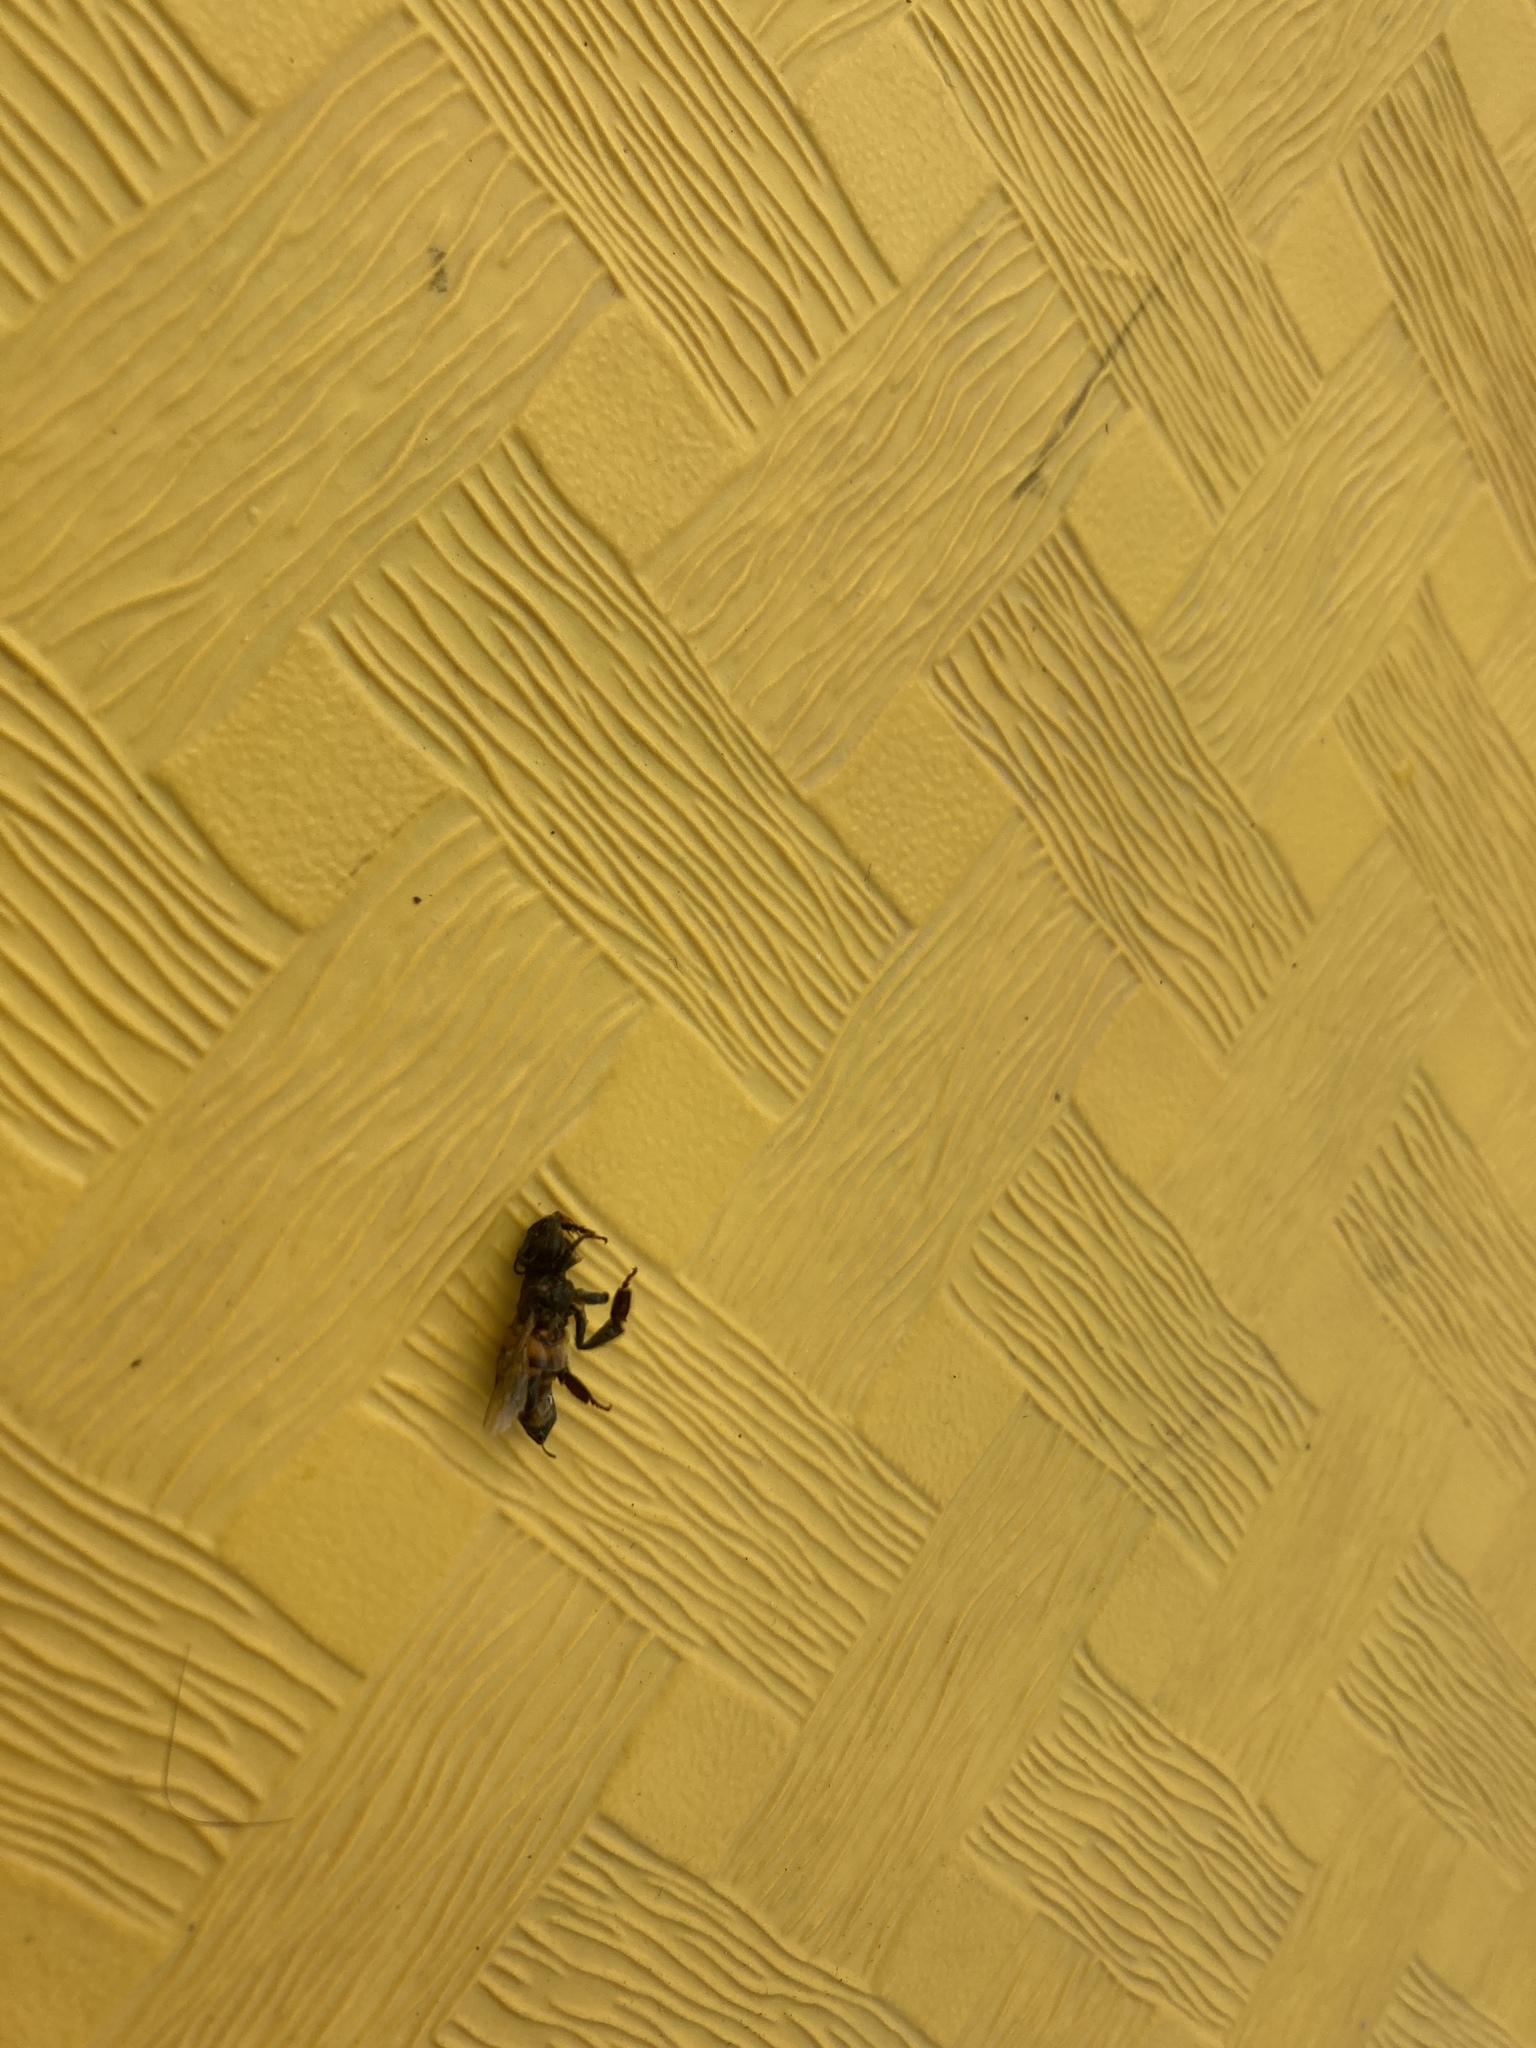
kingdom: Animalia
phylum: Arthropoda
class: Insecta
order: Hymenoptera
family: Apidae
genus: Apis
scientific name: Apis mellifera
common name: Honey bee
